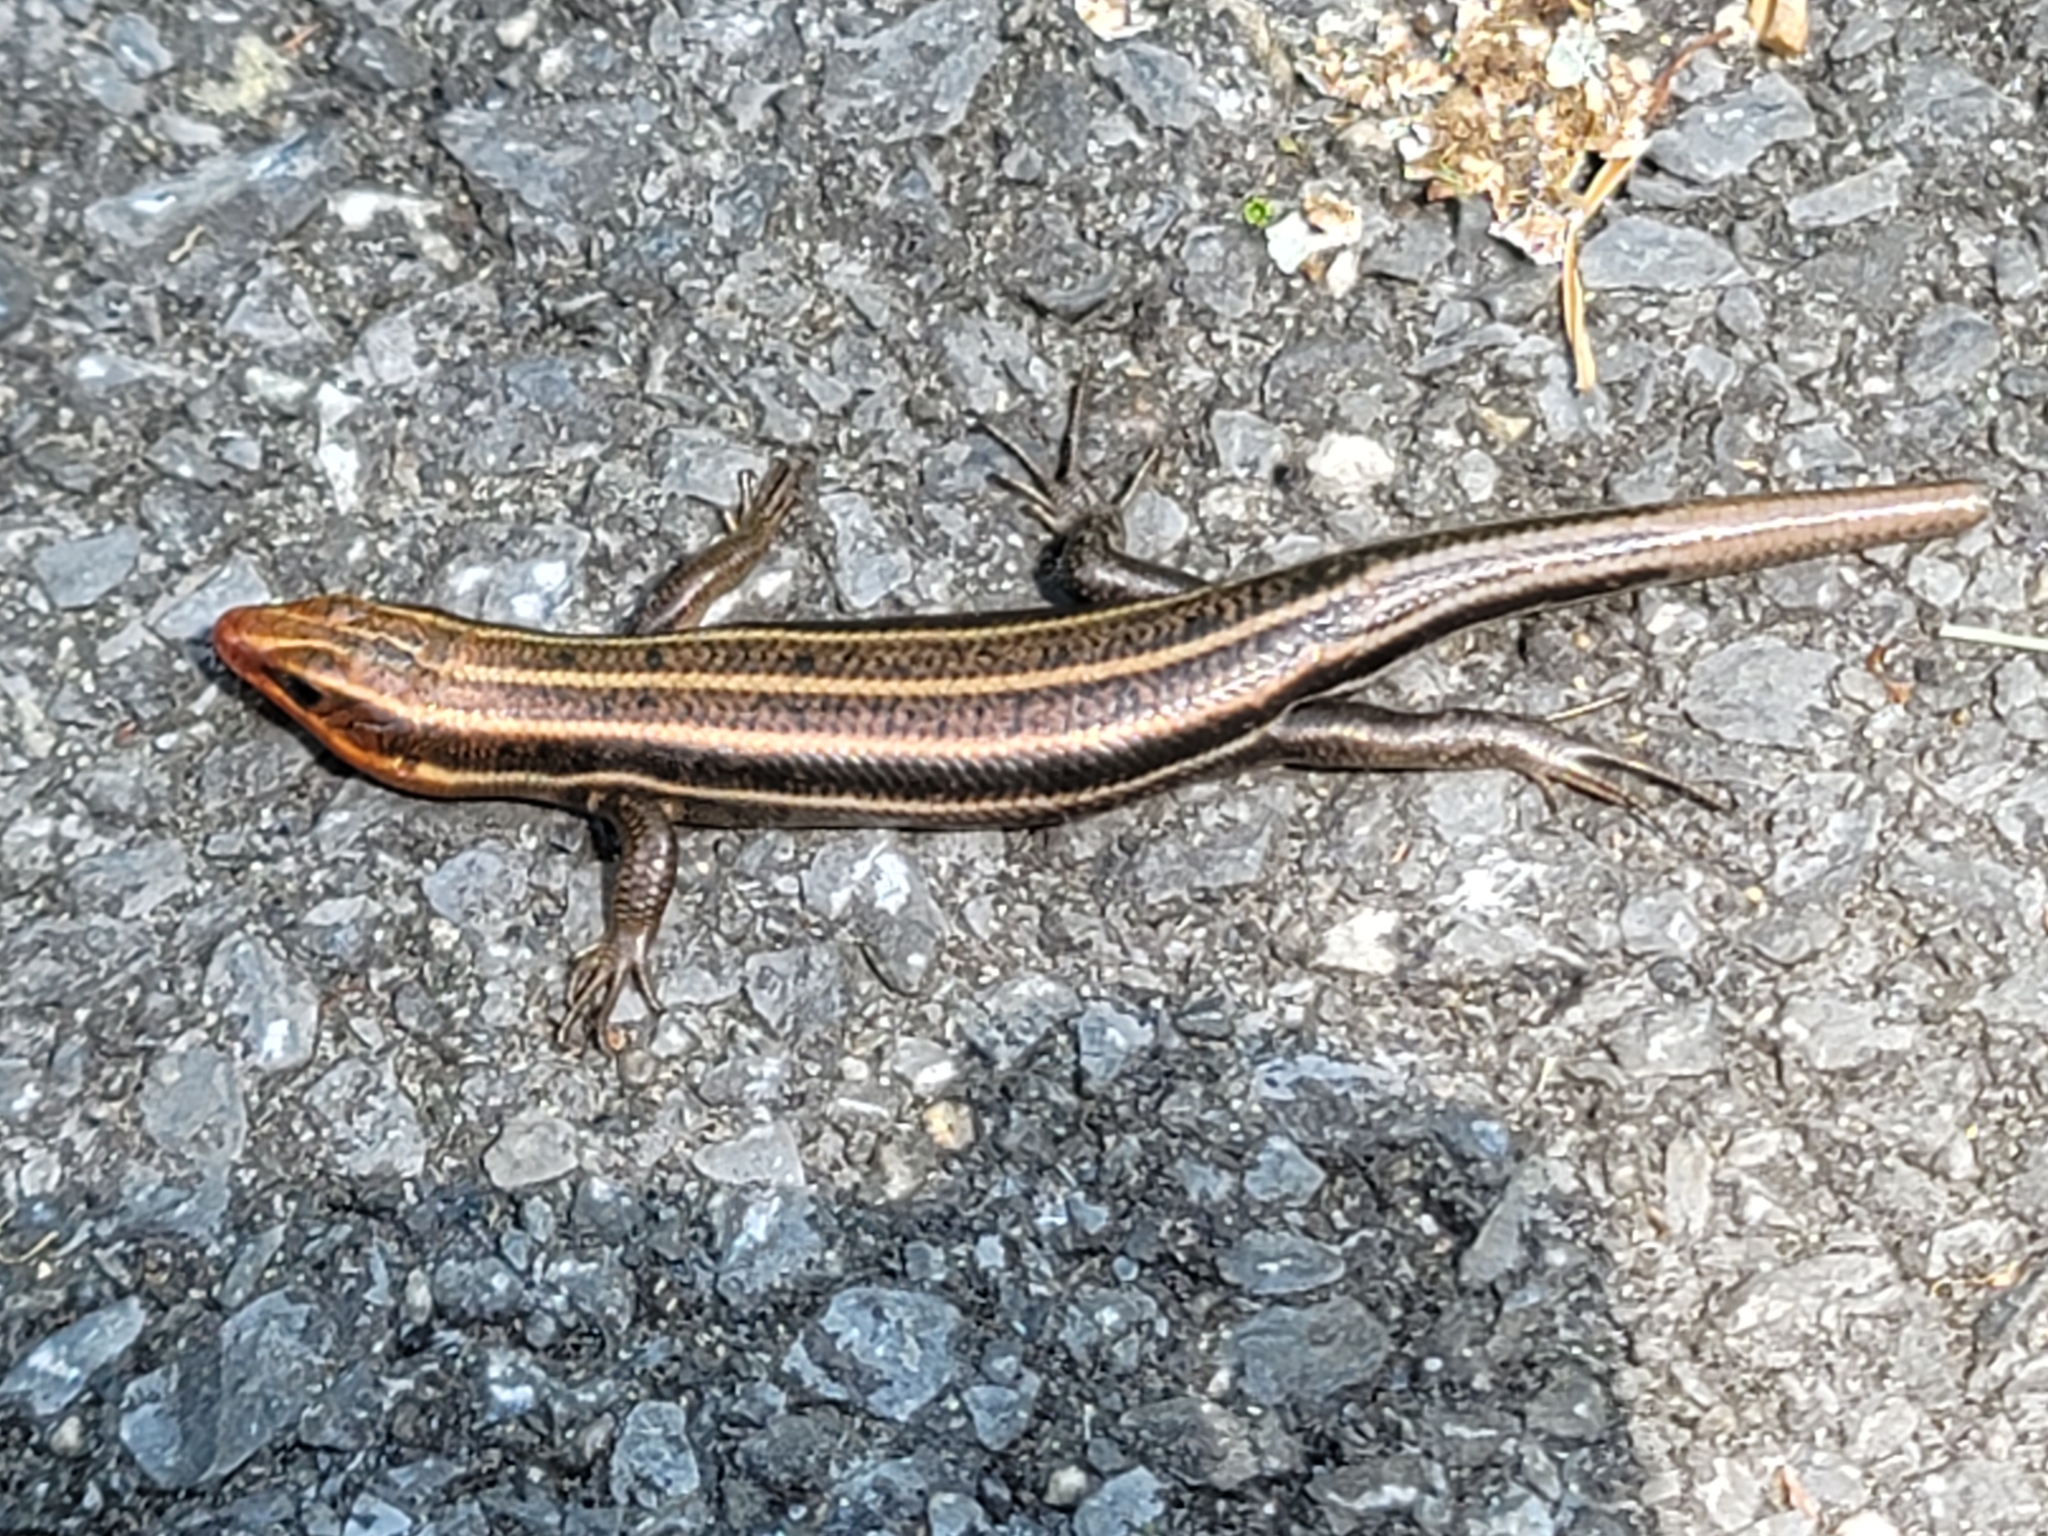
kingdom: Animalia
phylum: Chordata
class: Squamata
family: Scincidae
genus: Plestiodon
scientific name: Plestiodon fasciatus
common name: Five-lined skink
